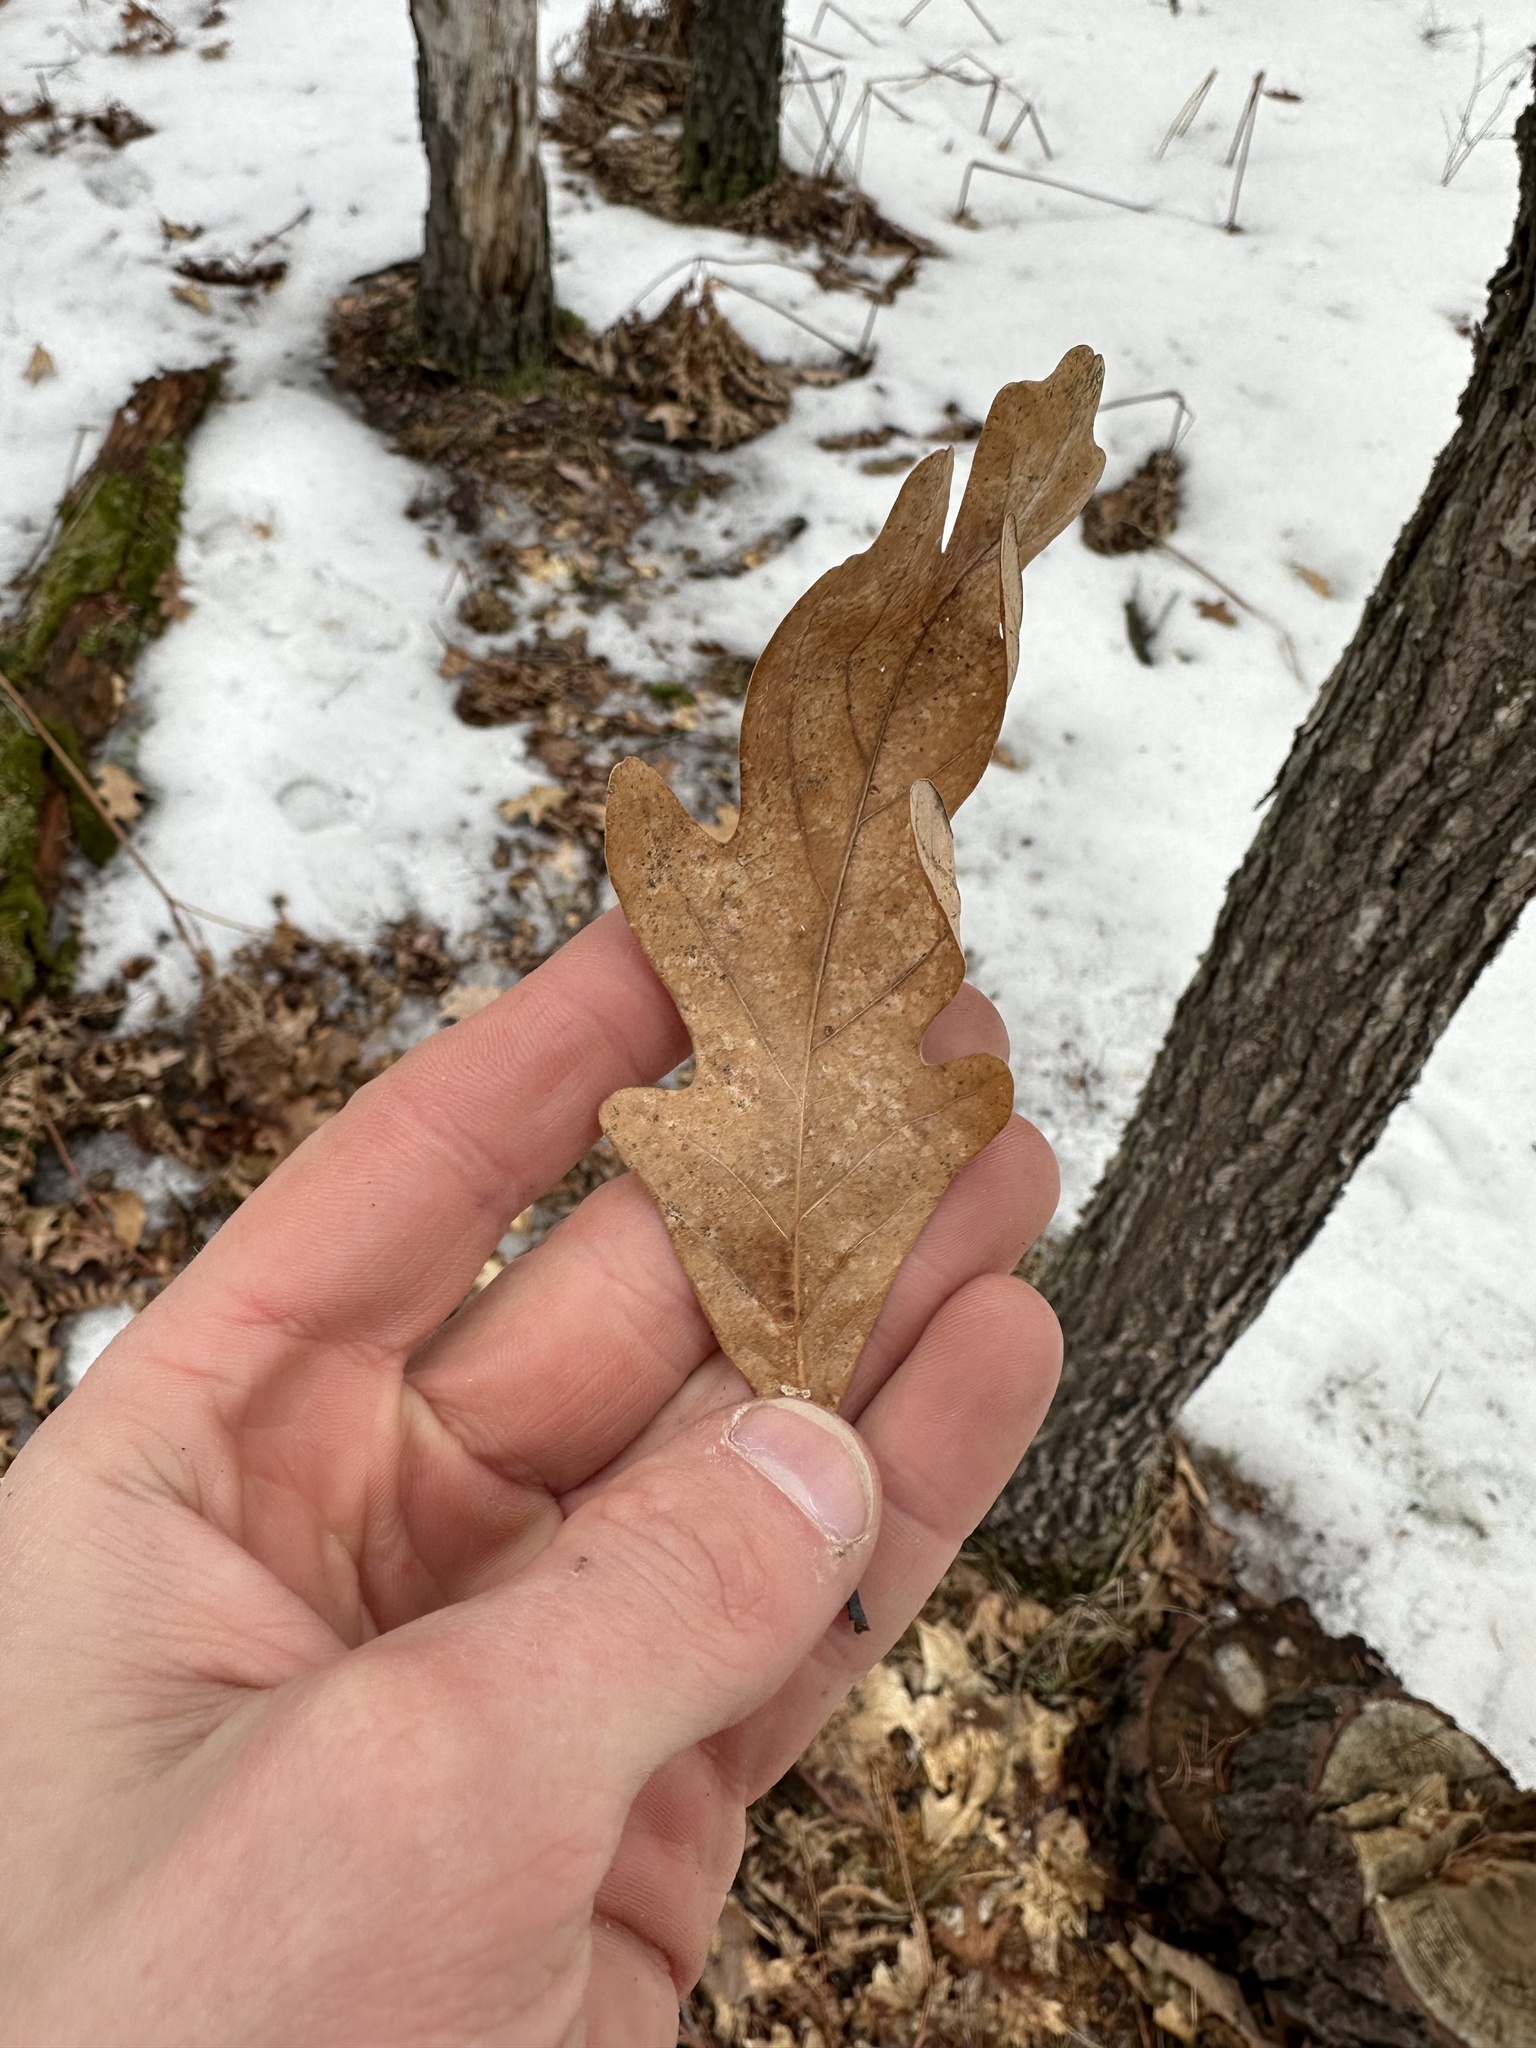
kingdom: Plantae
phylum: Tracheophyta
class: Magnoliopsida
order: Fagales
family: Fagaceae
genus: Quercus
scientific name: Quercus alba
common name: White oak
